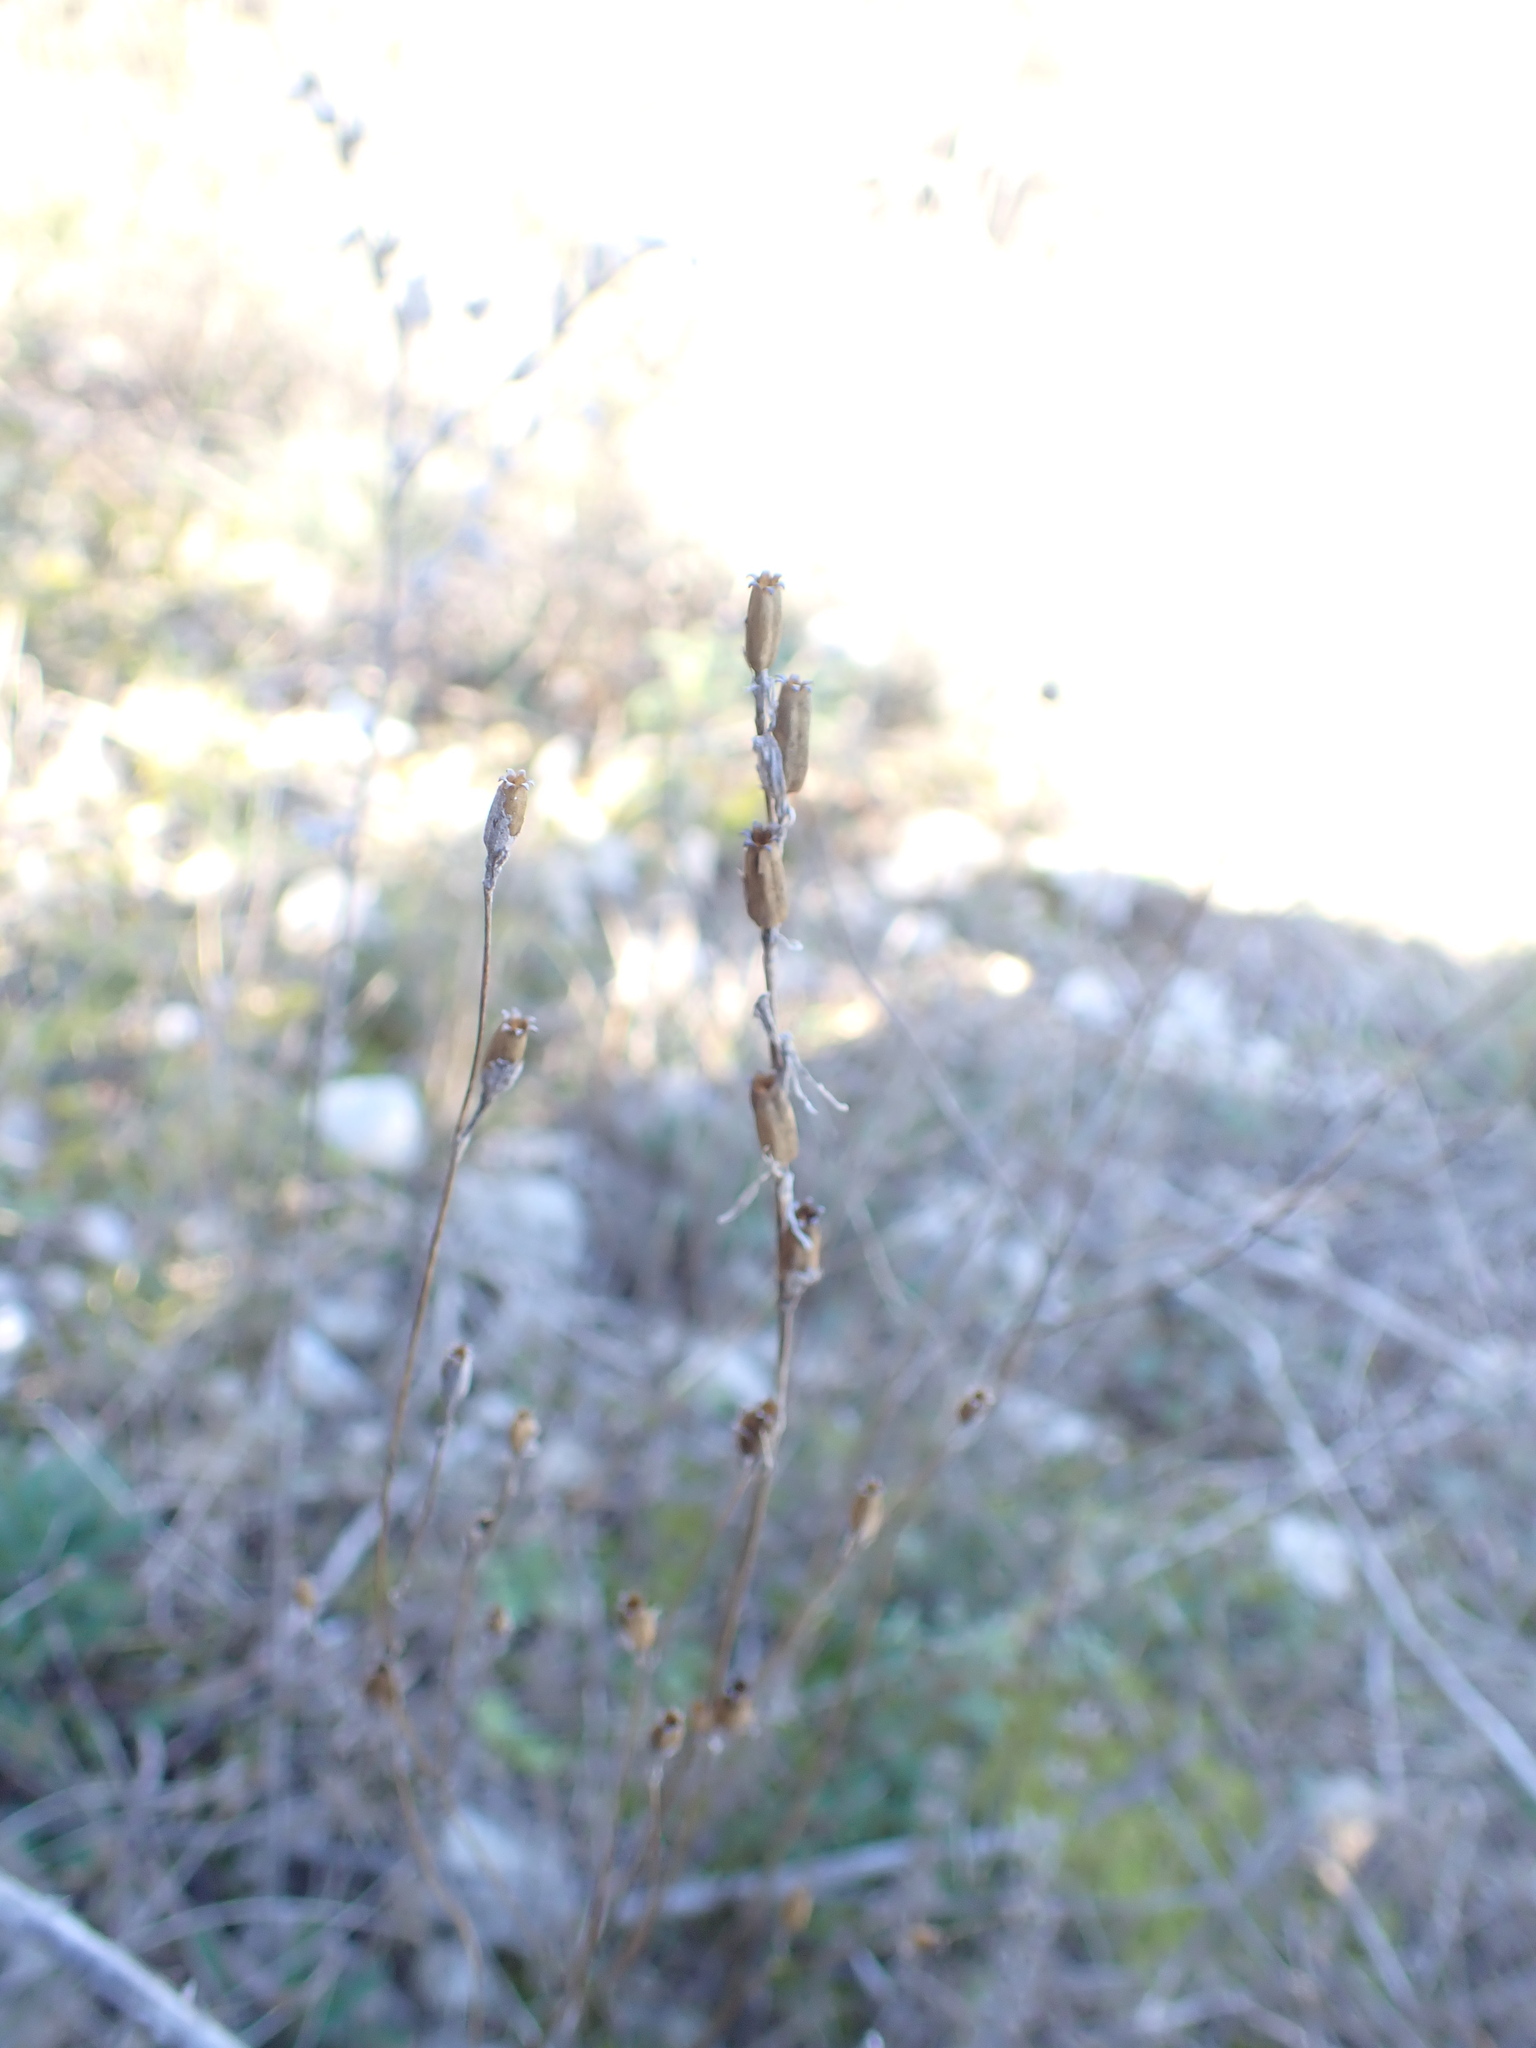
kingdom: Plantae
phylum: Tracheophyta
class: Magnoliopsida
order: Caryophyllales
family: Caryophyllaceae
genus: Silene
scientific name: Silene nocturna
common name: Mediterranean catchfly
